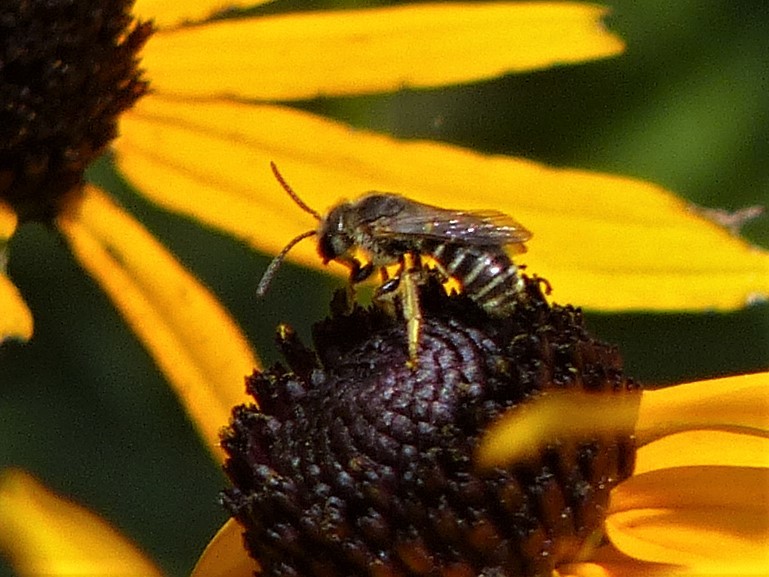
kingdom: Animalia
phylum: Arthropoda
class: Insecta
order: Hymenoptera
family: Halictidae
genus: Halictus
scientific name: Halictus ligatus
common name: Ligated furrow bee
